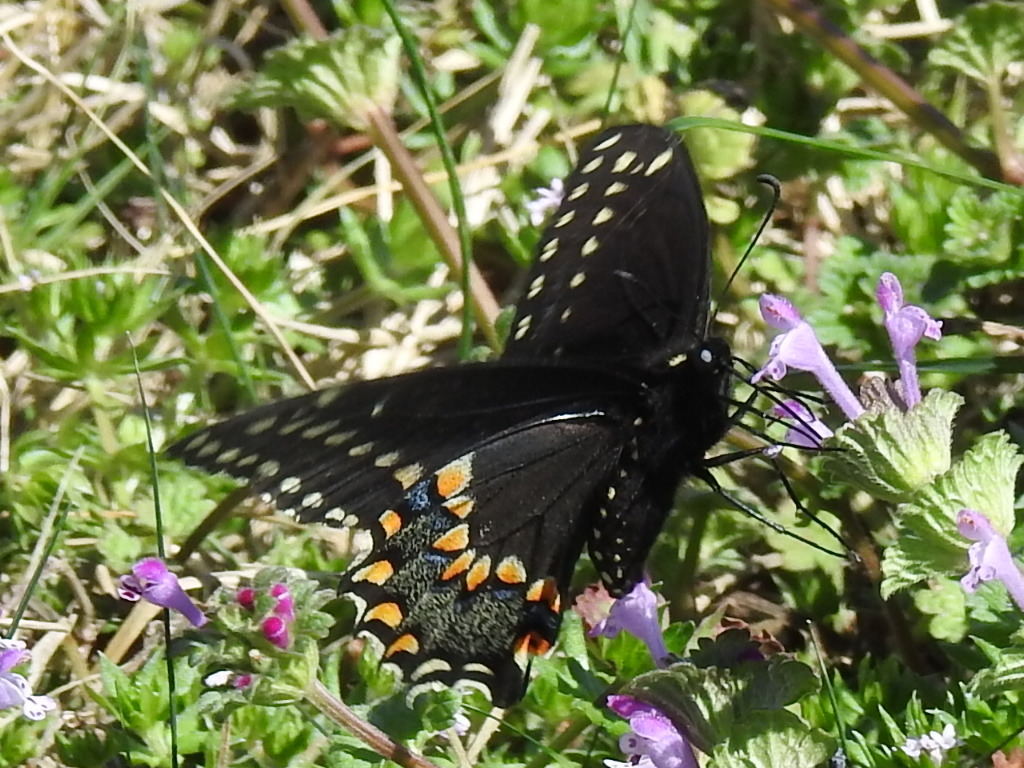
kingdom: Animalia
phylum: Arthropoda
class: Insecta
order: Lepidoptera
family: Papilionidae
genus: Papilio
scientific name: Papilio polyxenes
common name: Black swallowtail
